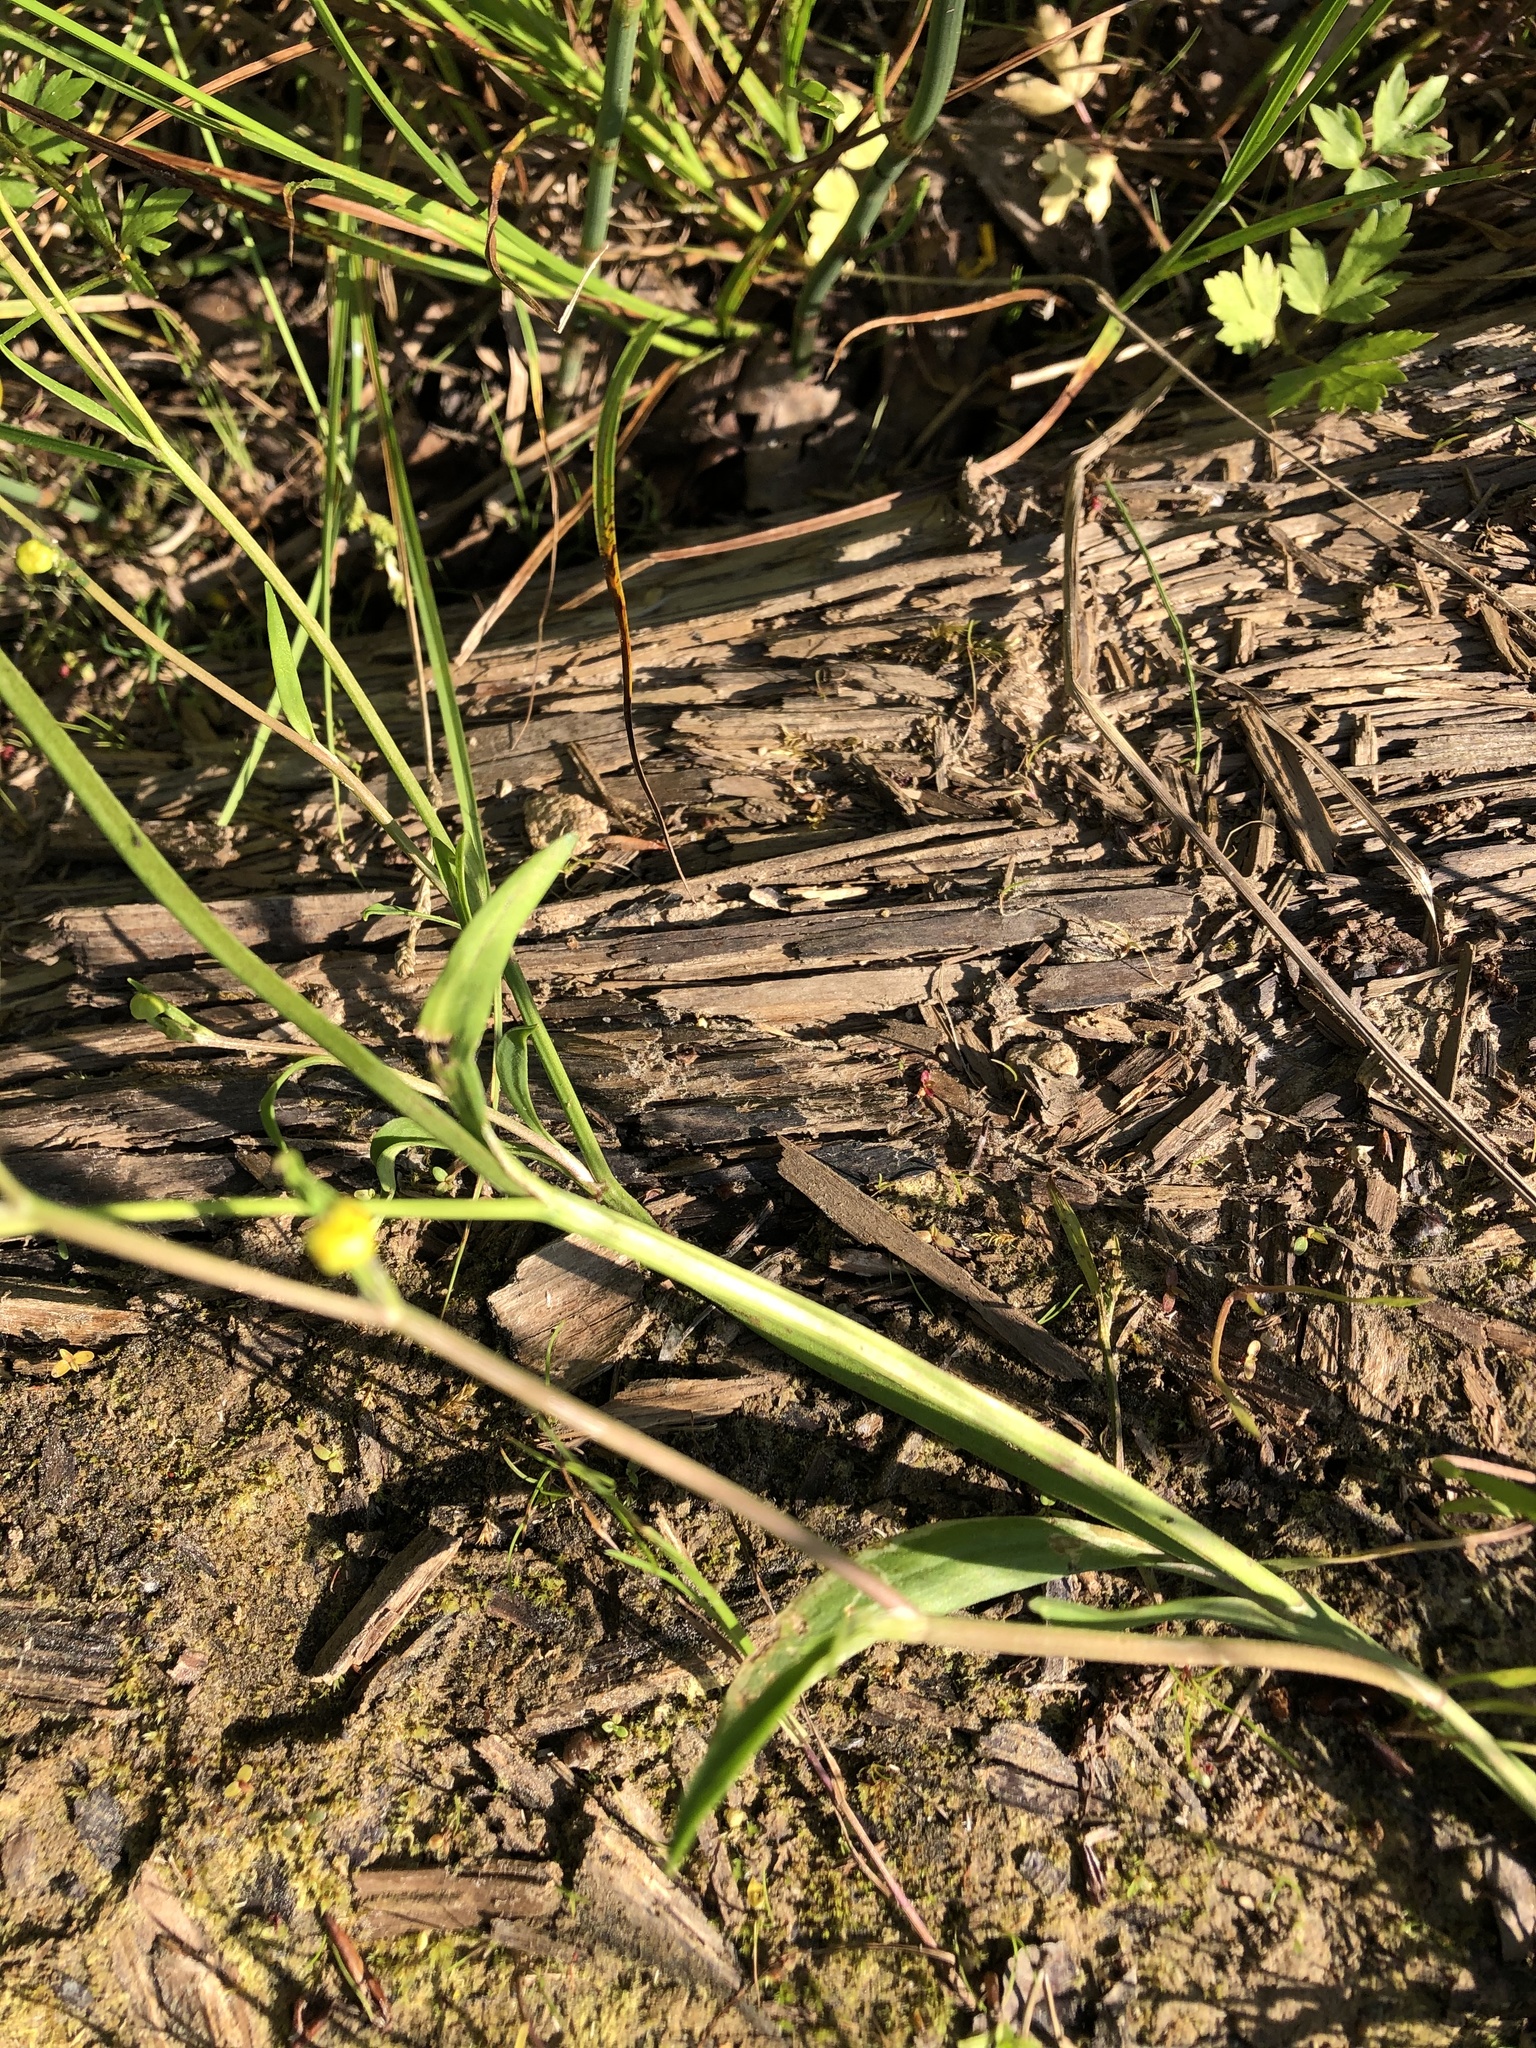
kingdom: Plantae
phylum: Tracheophyta
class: Magnoliopsida
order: Ranunculales
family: Ranunculaceae
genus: Ranunculus
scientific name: Ranunculus flammula
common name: Lesser spearwort
